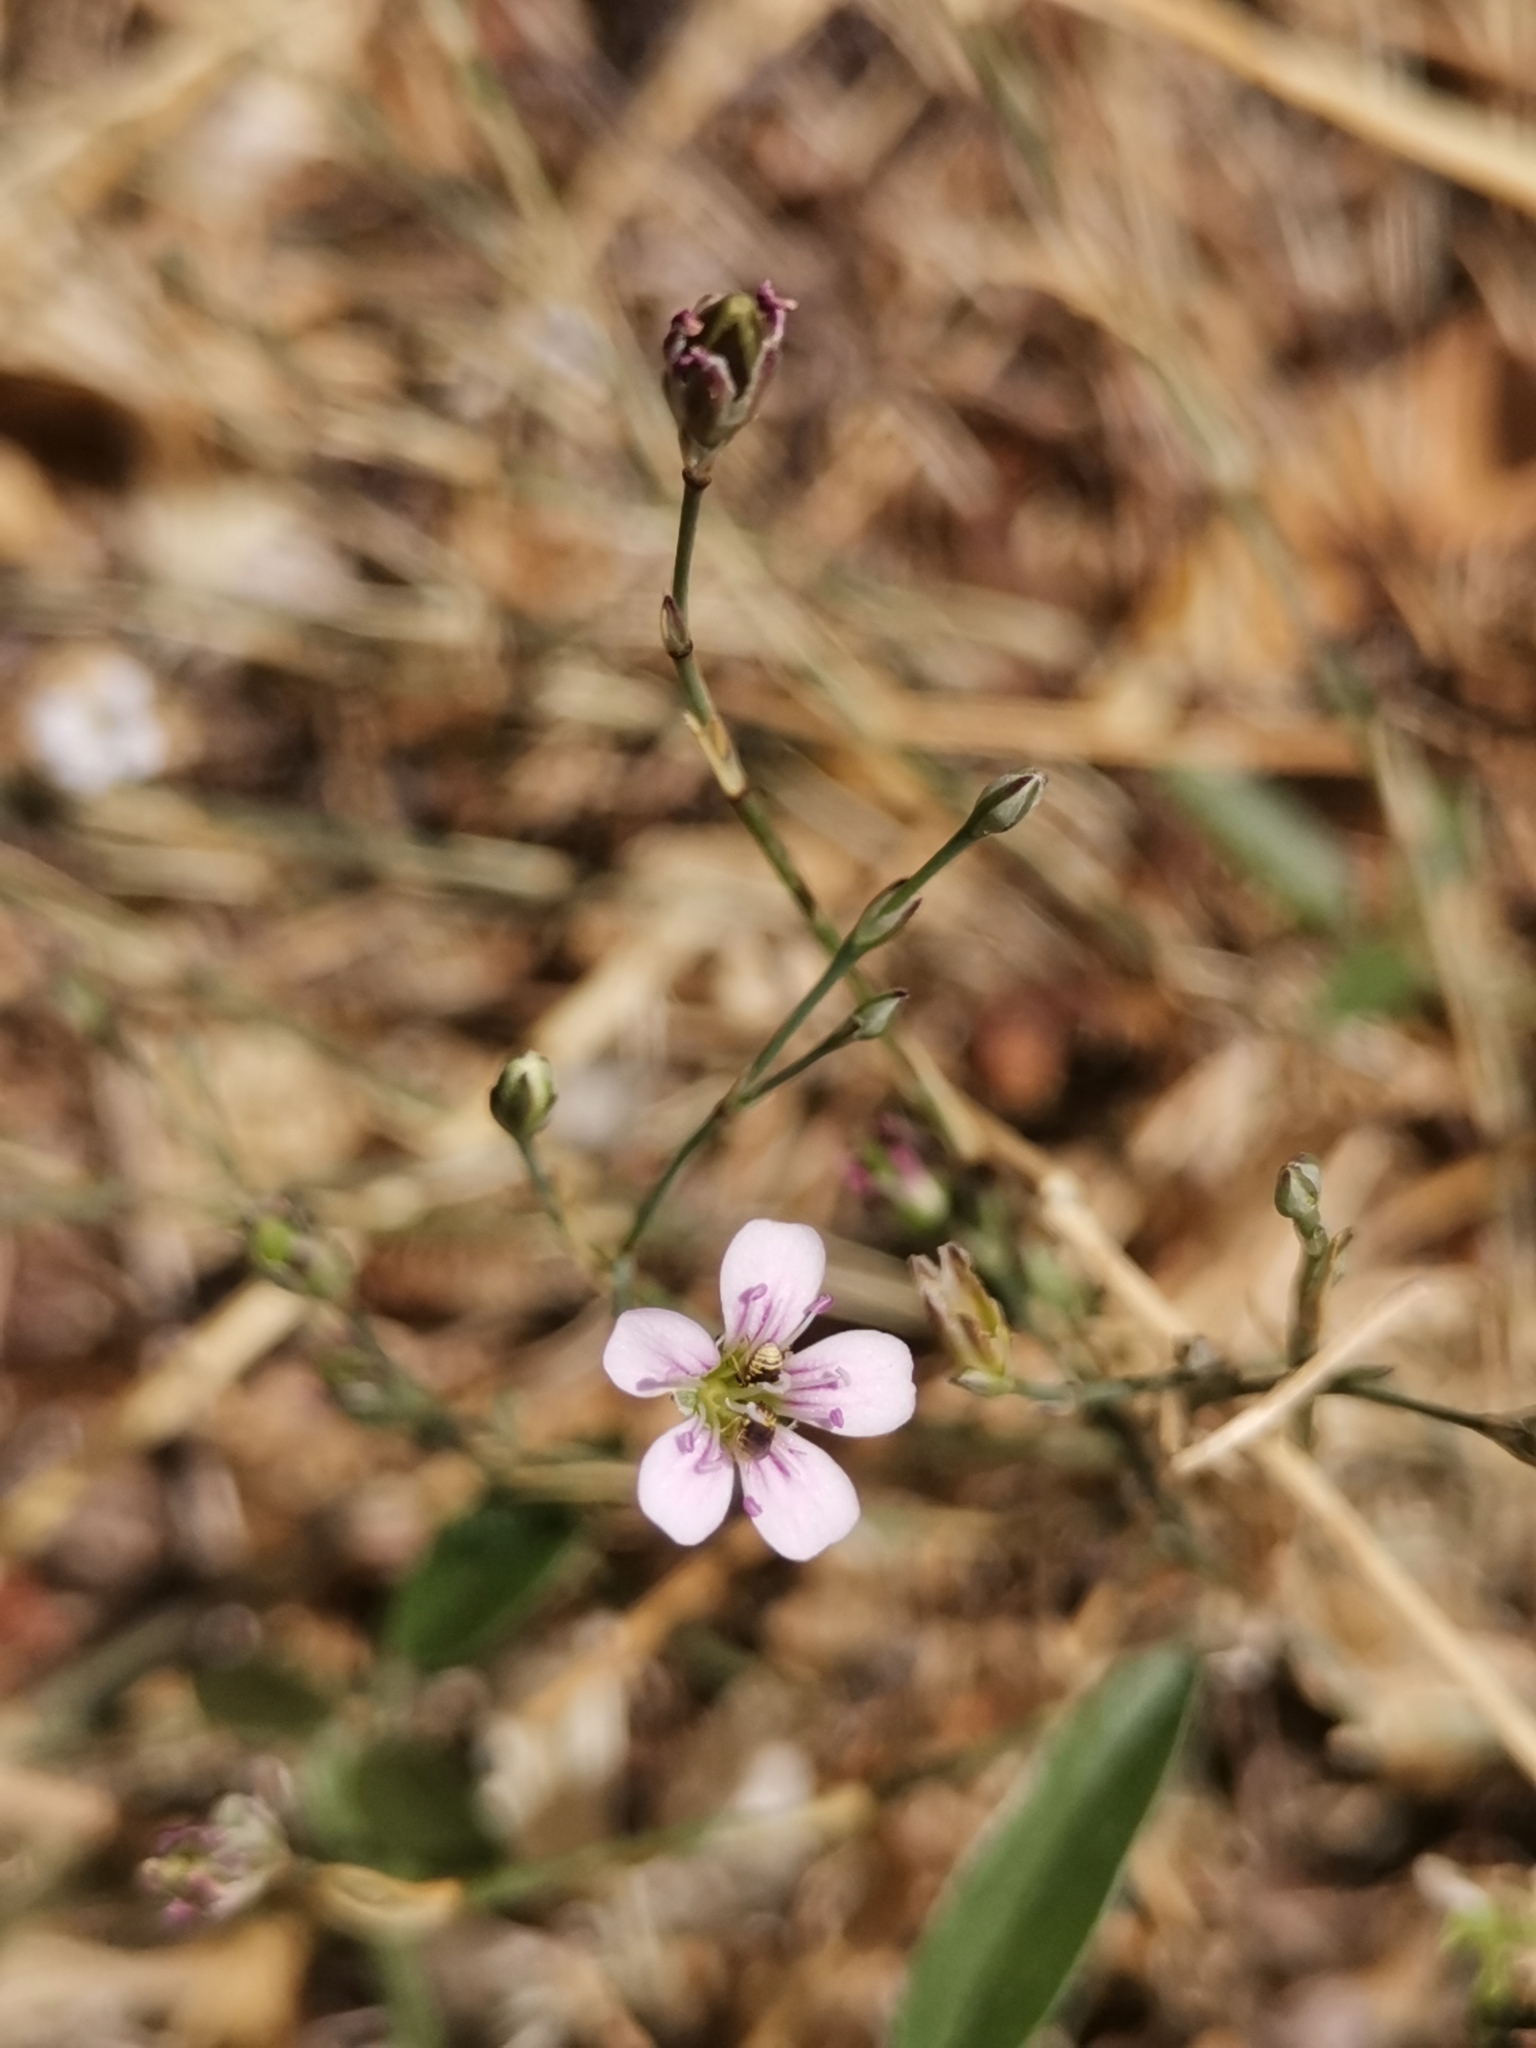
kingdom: Plantae
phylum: Tracheophyta
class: Magnoliopsida
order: Caryophyllales
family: Caryophyllaceae
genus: Petrorhagia
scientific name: Petrorhagia saxifraga
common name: Tunicflower
